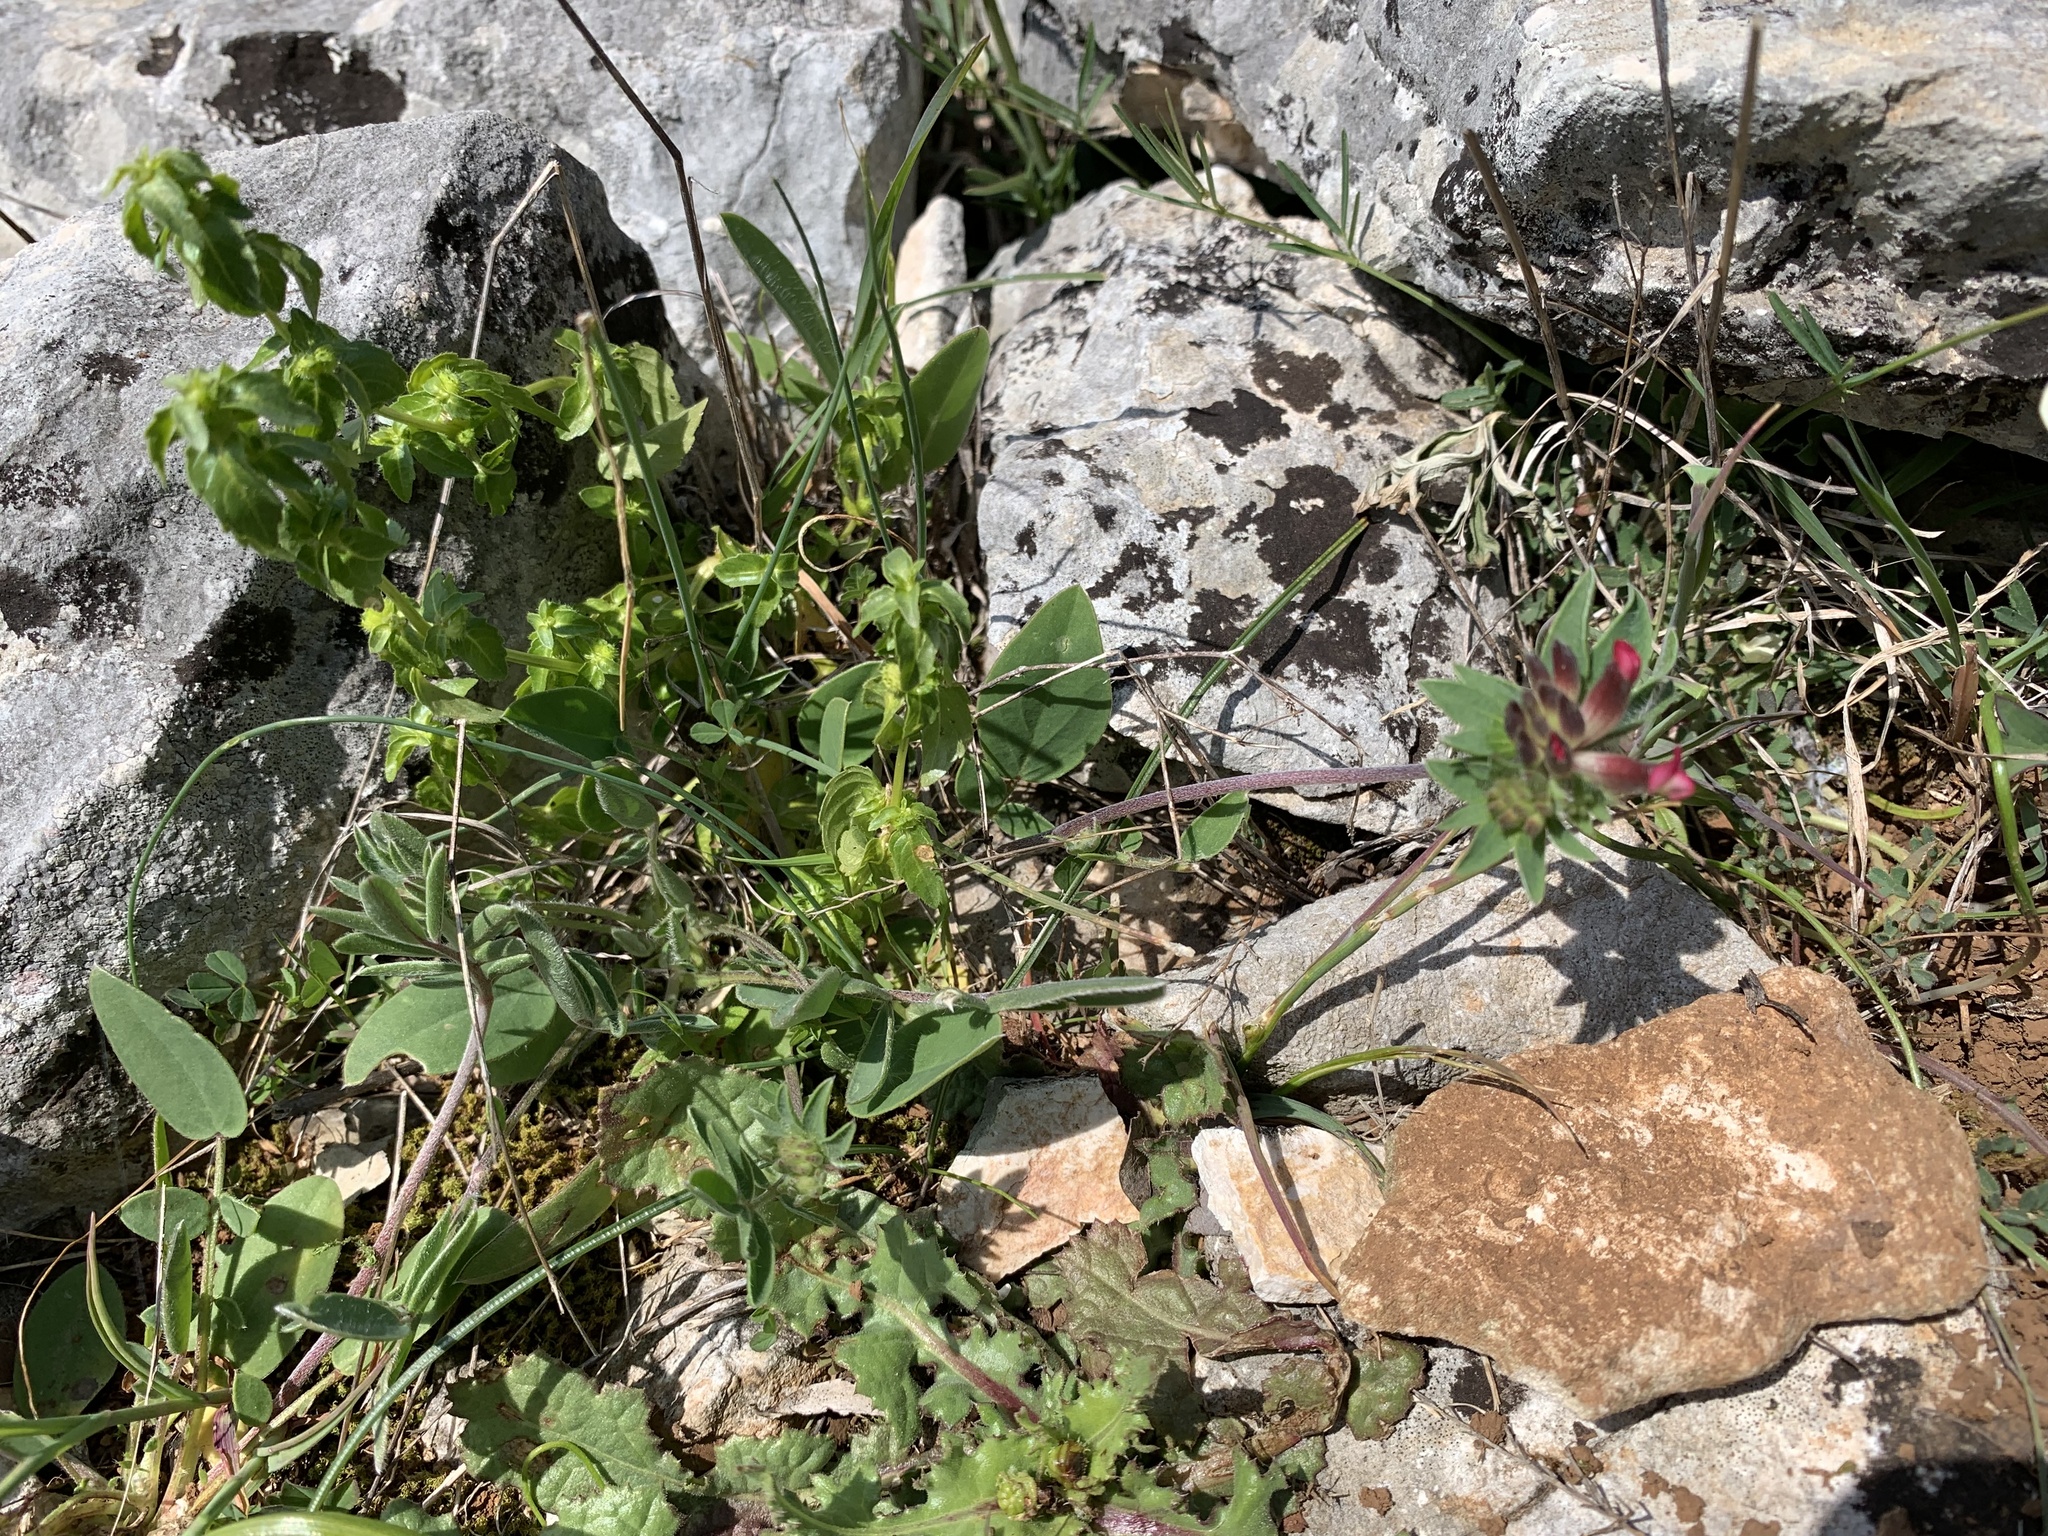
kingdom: Plantae
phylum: Tracheophyta
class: Magnoliopsida
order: Fabales
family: Fabaceae
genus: Anthyllis
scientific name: Anthyllis vulneraria
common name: Kidney vetch
